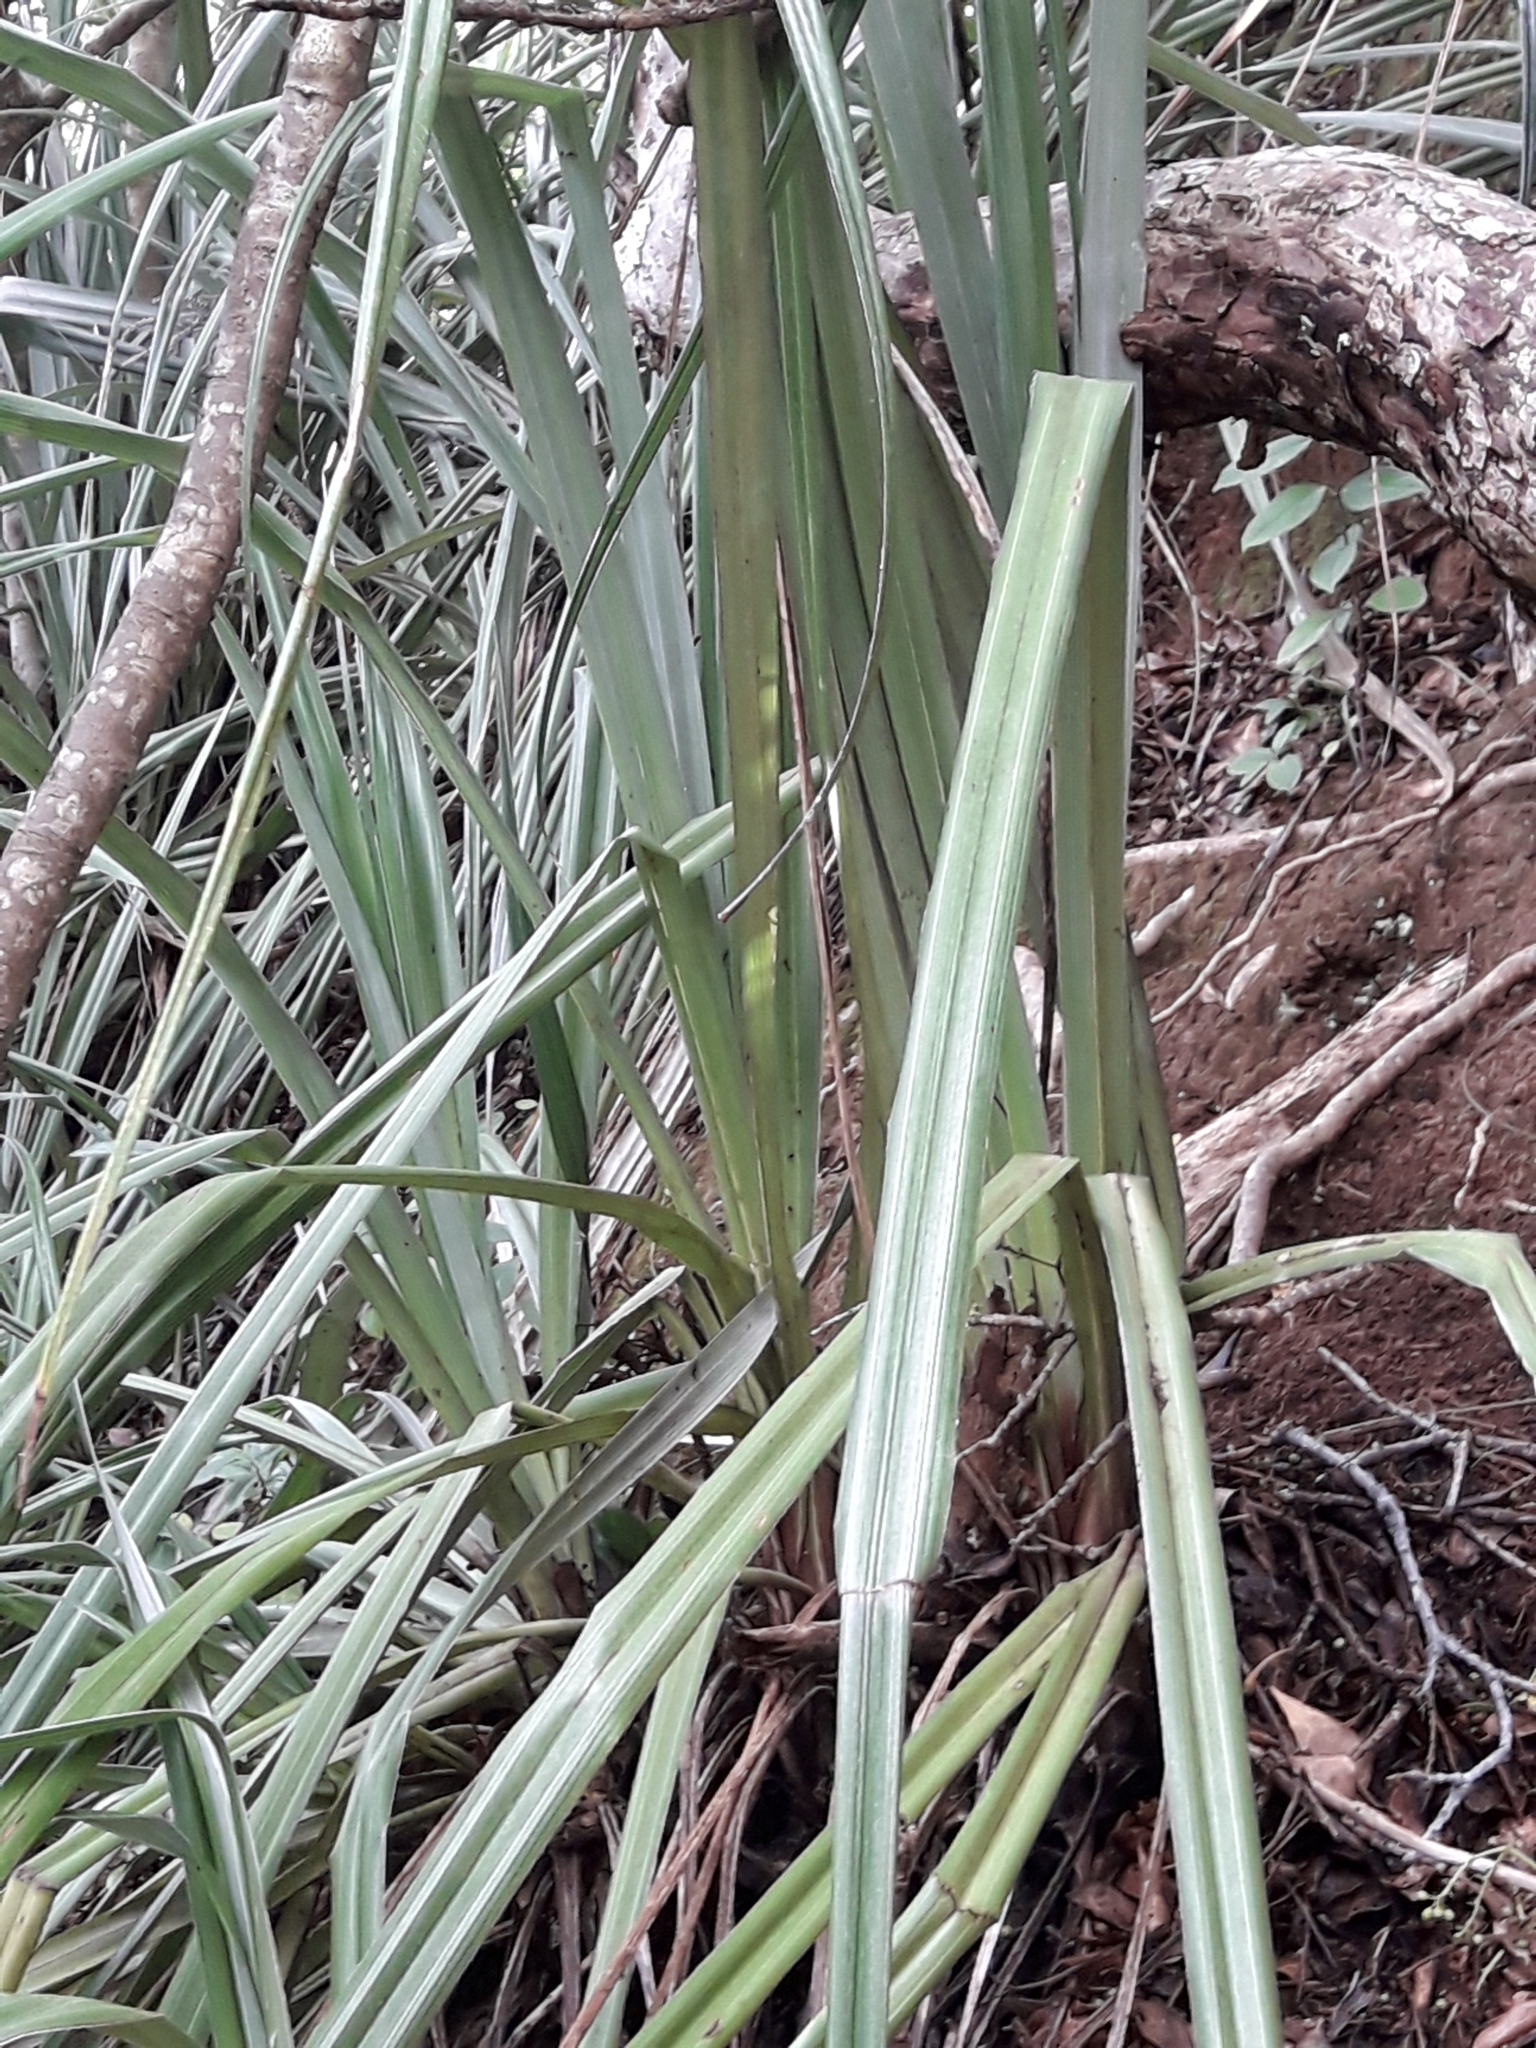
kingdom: Plantae
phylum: Tracheophyta
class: Liliopsida
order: Asparagales
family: Asteliaceae
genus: Astelia
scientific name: Astelia banksii
